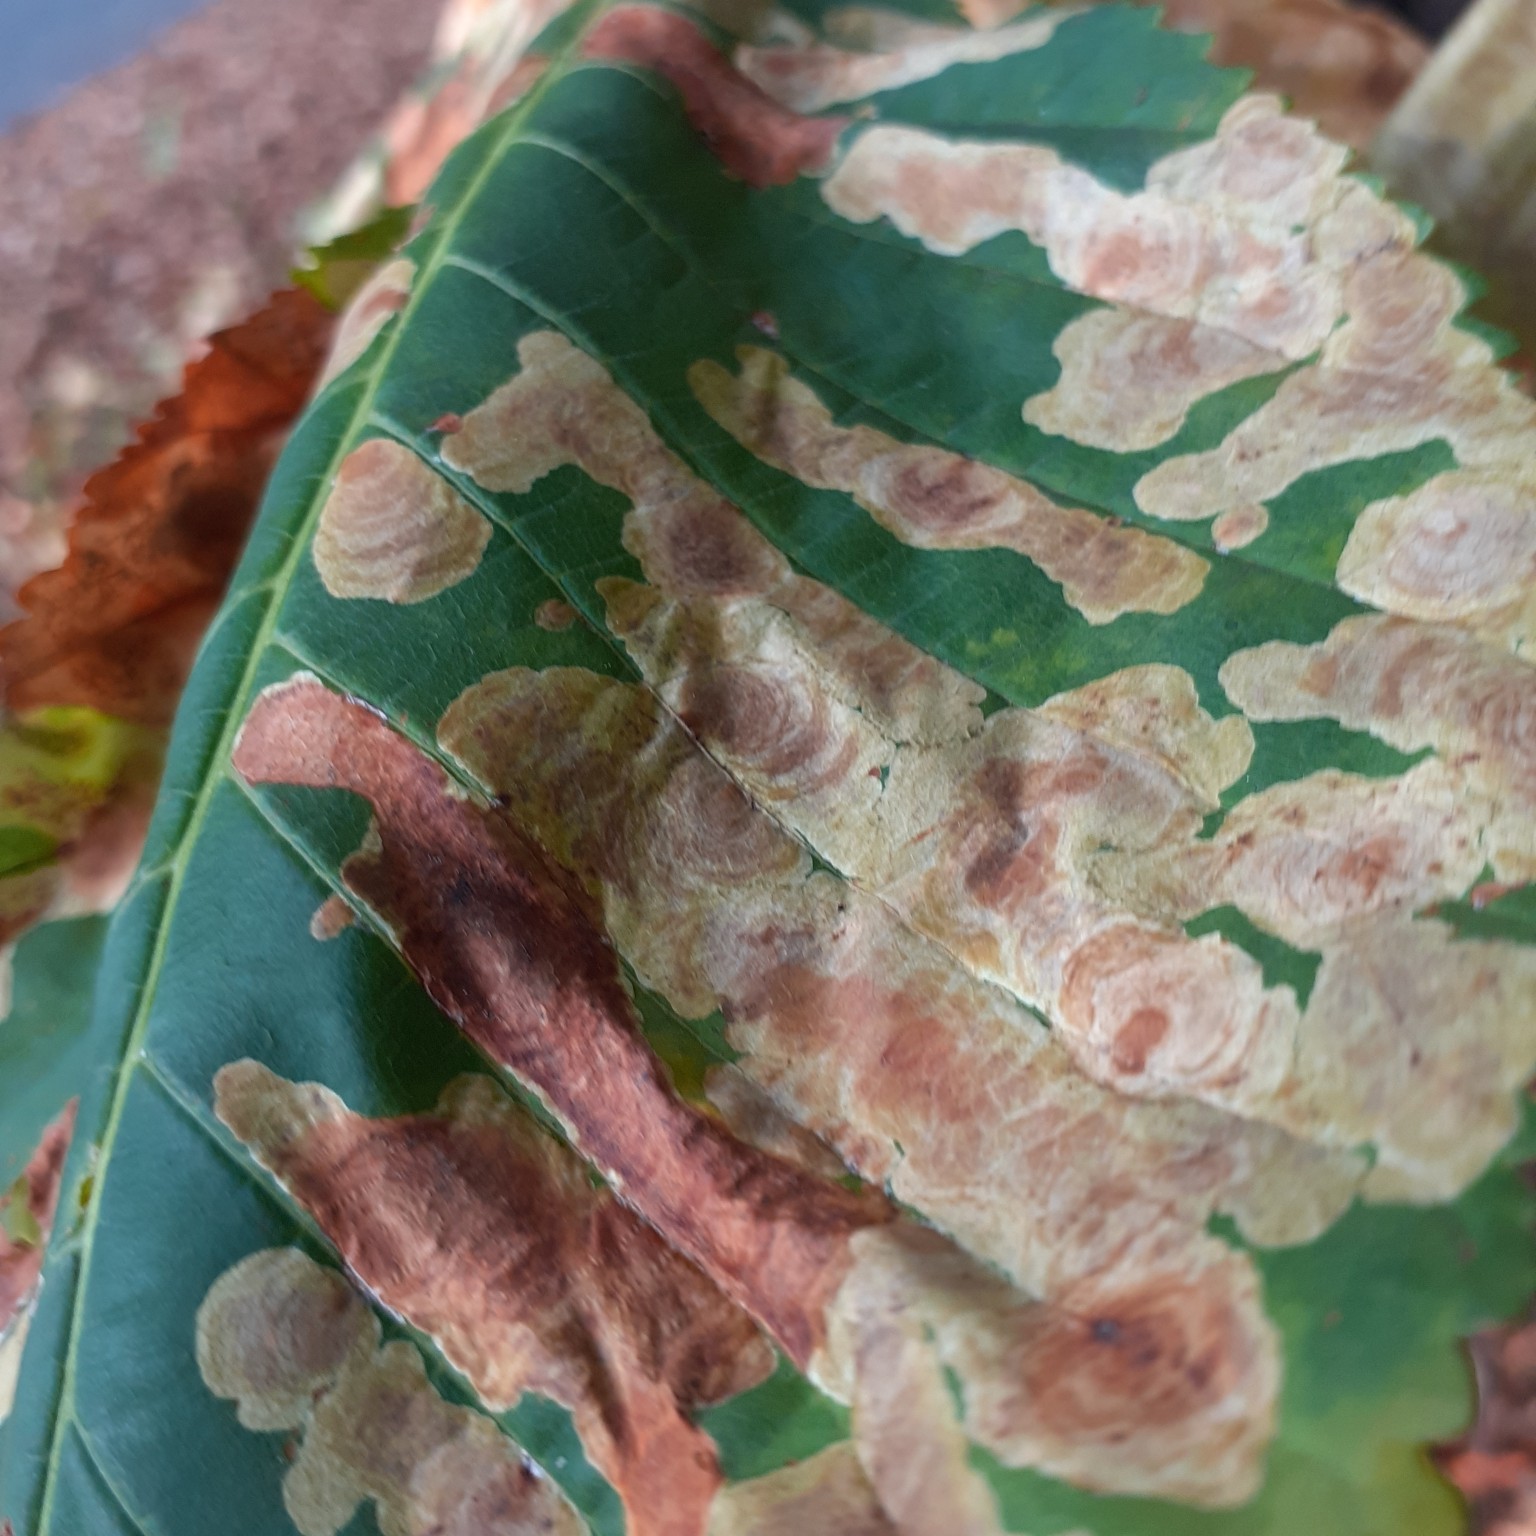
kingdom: Animalia
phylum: Arthropoda
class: Insecta
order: Lepidoptera
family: Gracillariidae
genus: Cameraria
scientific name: Cameraria ohridella
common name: Horse-chestnut leaf-miner
